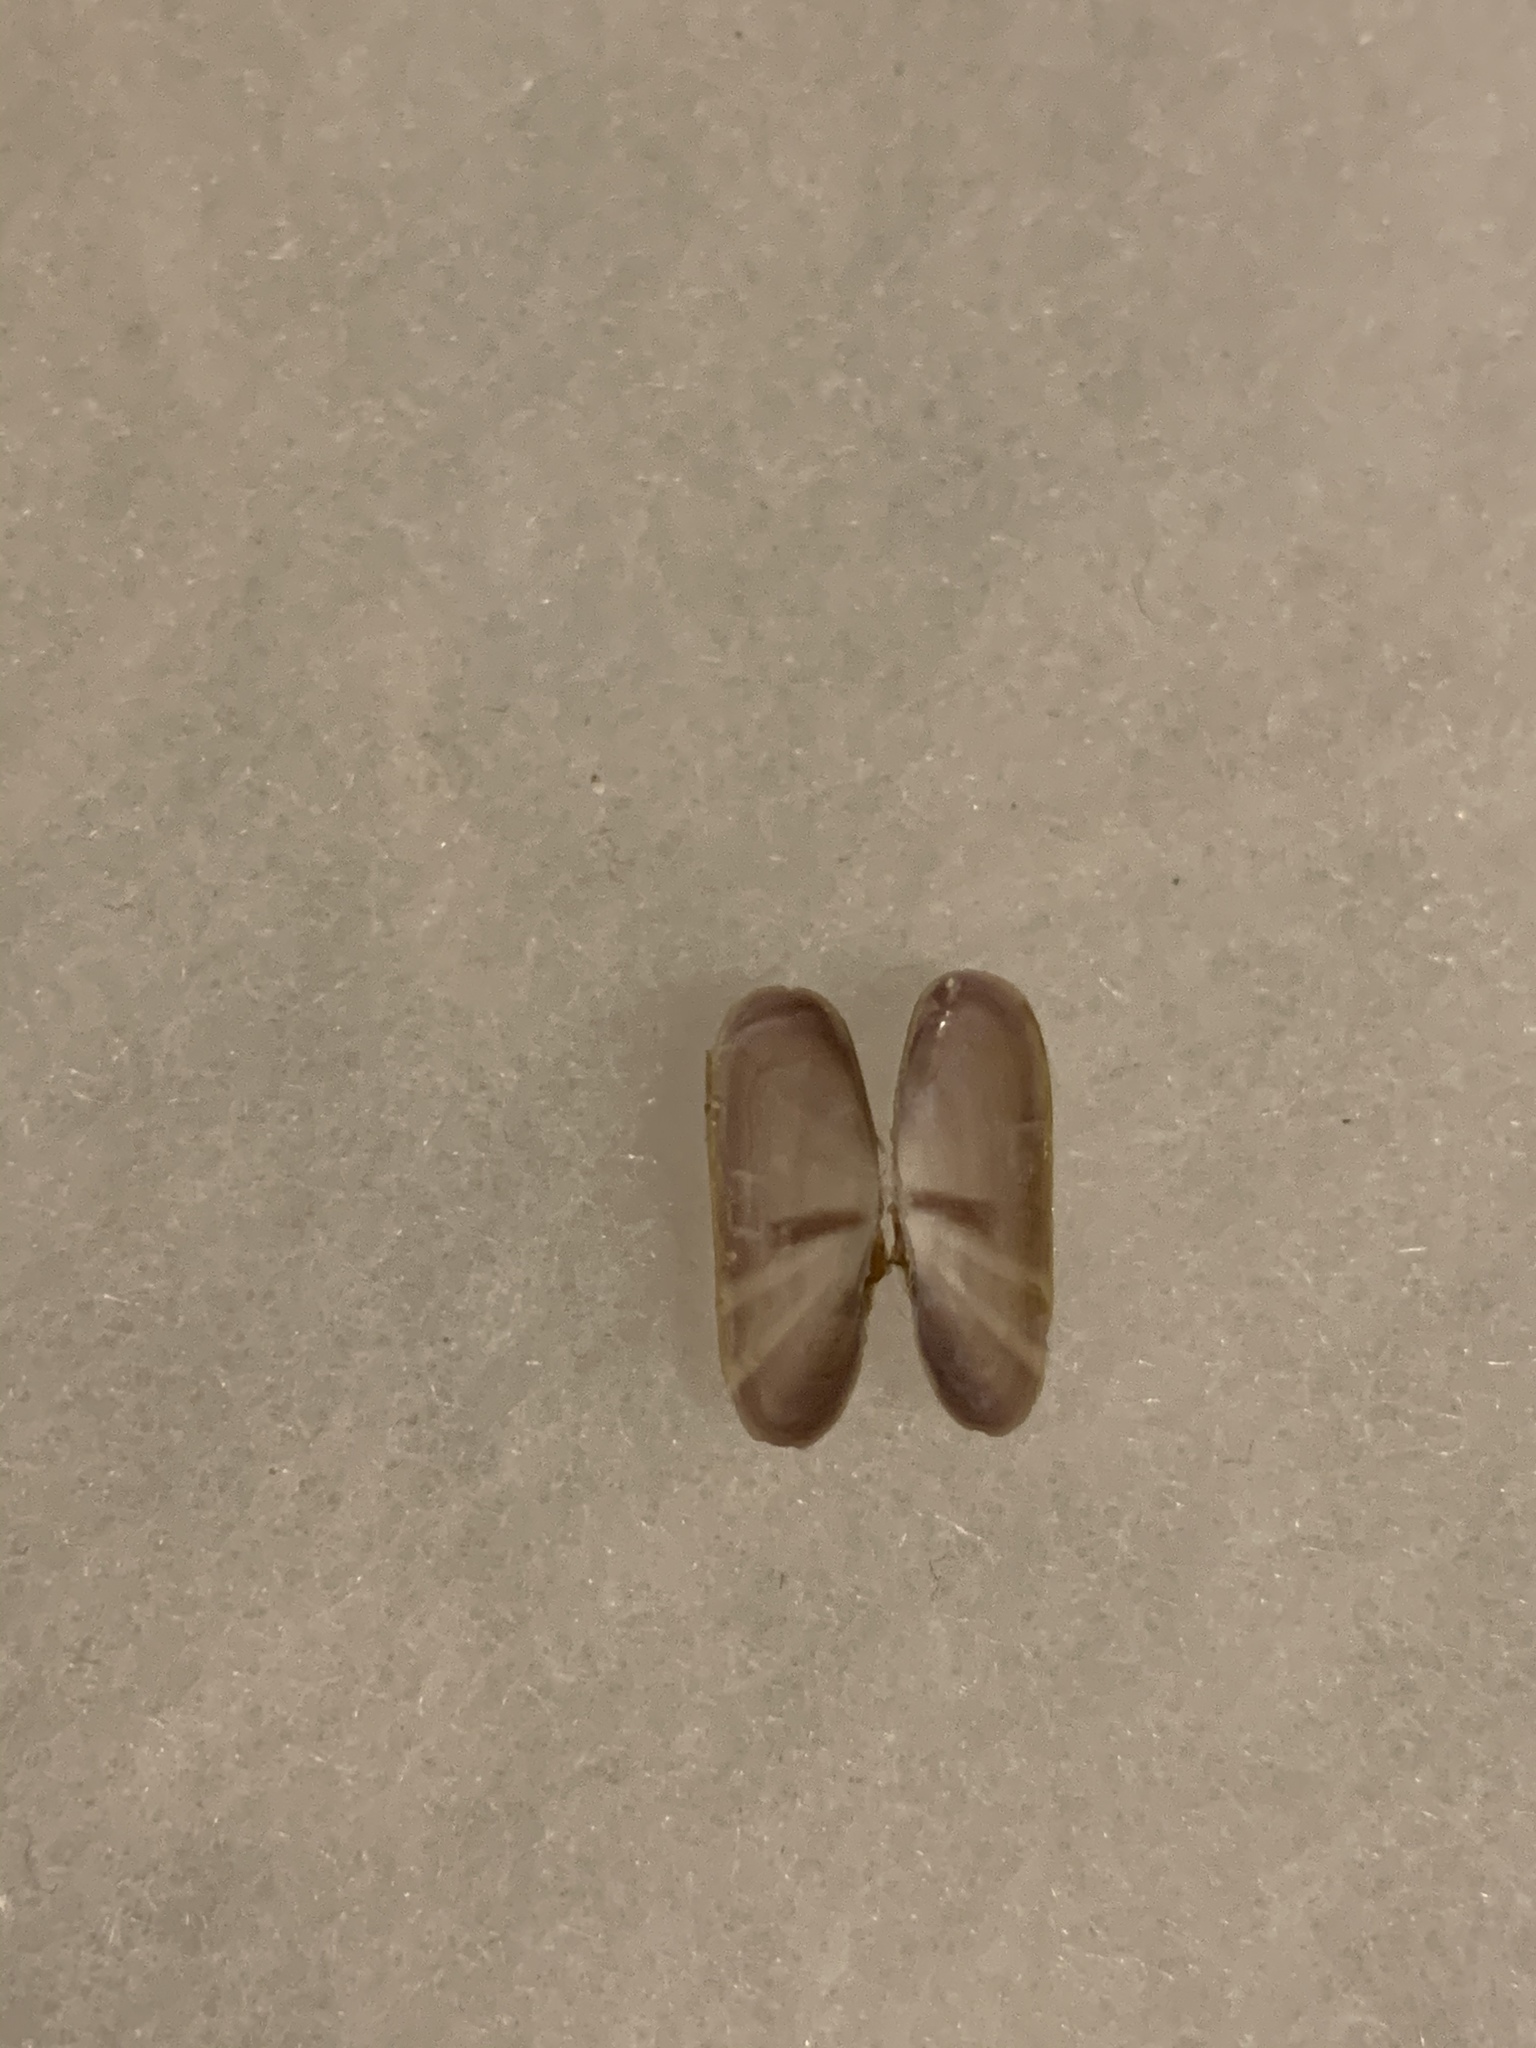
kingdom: Animalia
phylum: Mollusca
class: Bivalvia
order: Cardiida
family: Solecurtidae
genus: Tagelus
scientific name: Tagelus divisus
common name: Purplish tagelus
